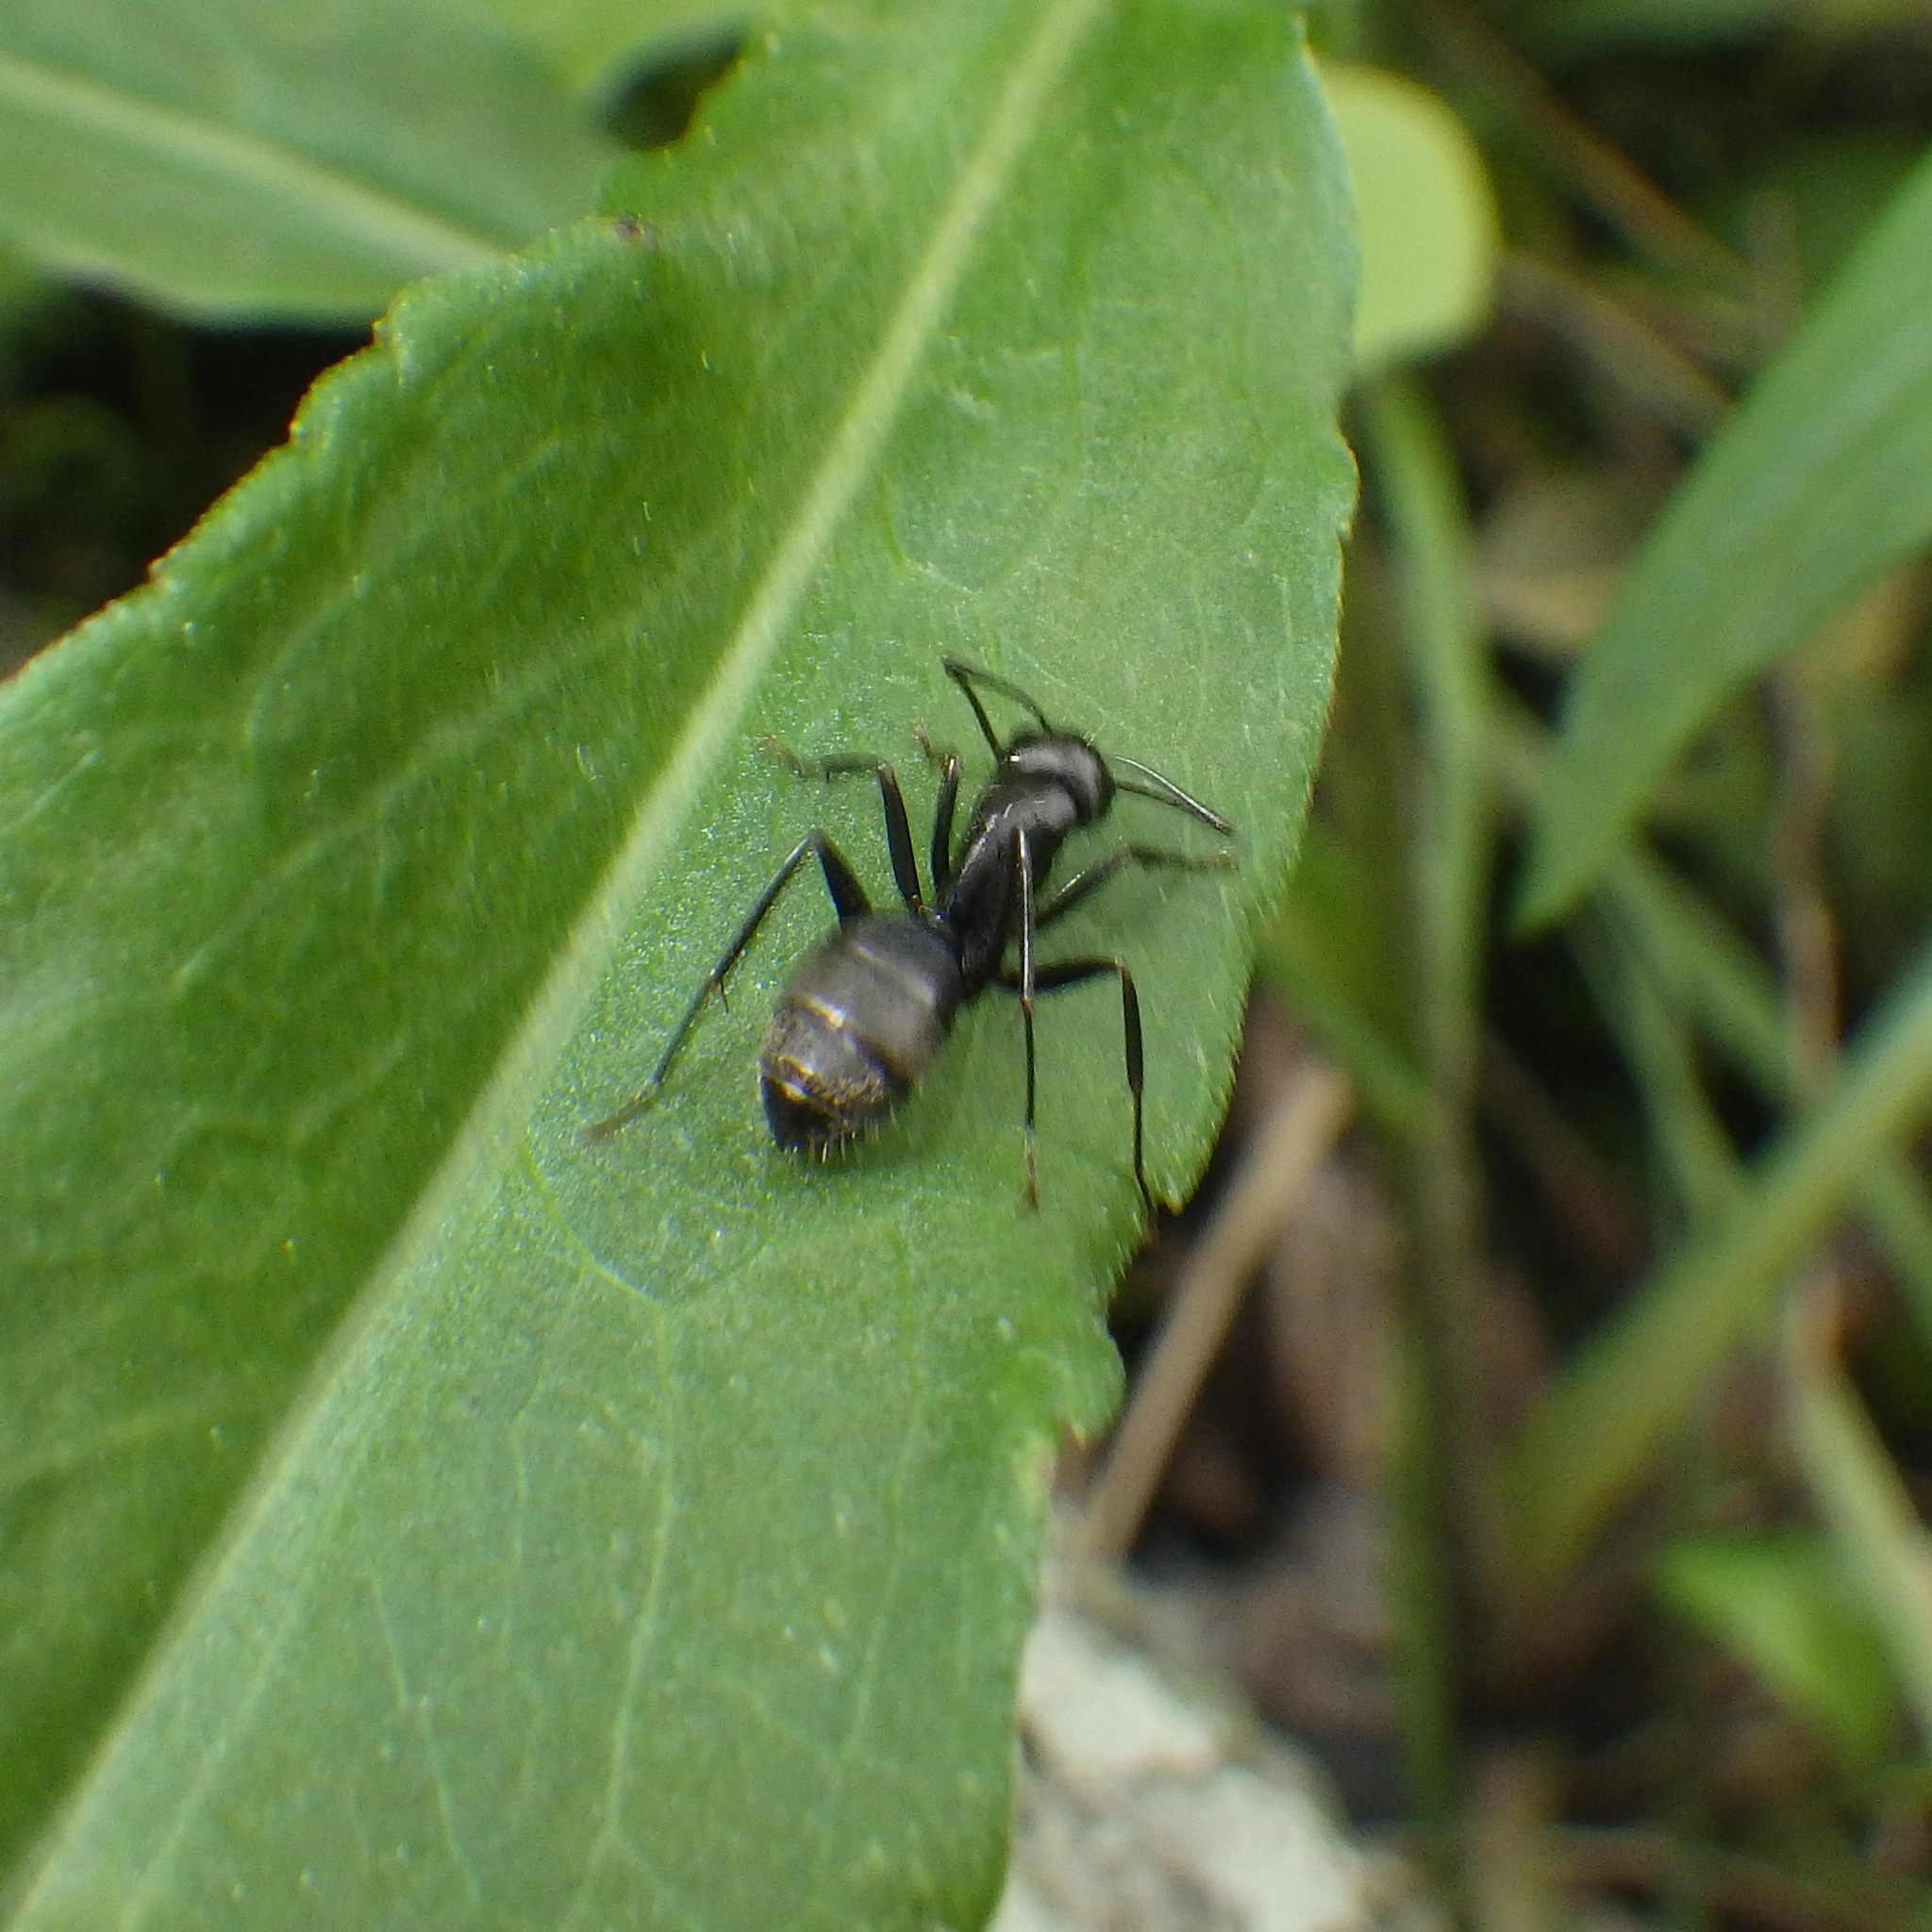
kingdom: Animalia
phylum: Arthropoda
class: Insecta
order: Hymenoptera
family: Formicidae
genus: Camponotus
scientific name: Camponotus pennsylvanicus
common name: Black carpenter ant
